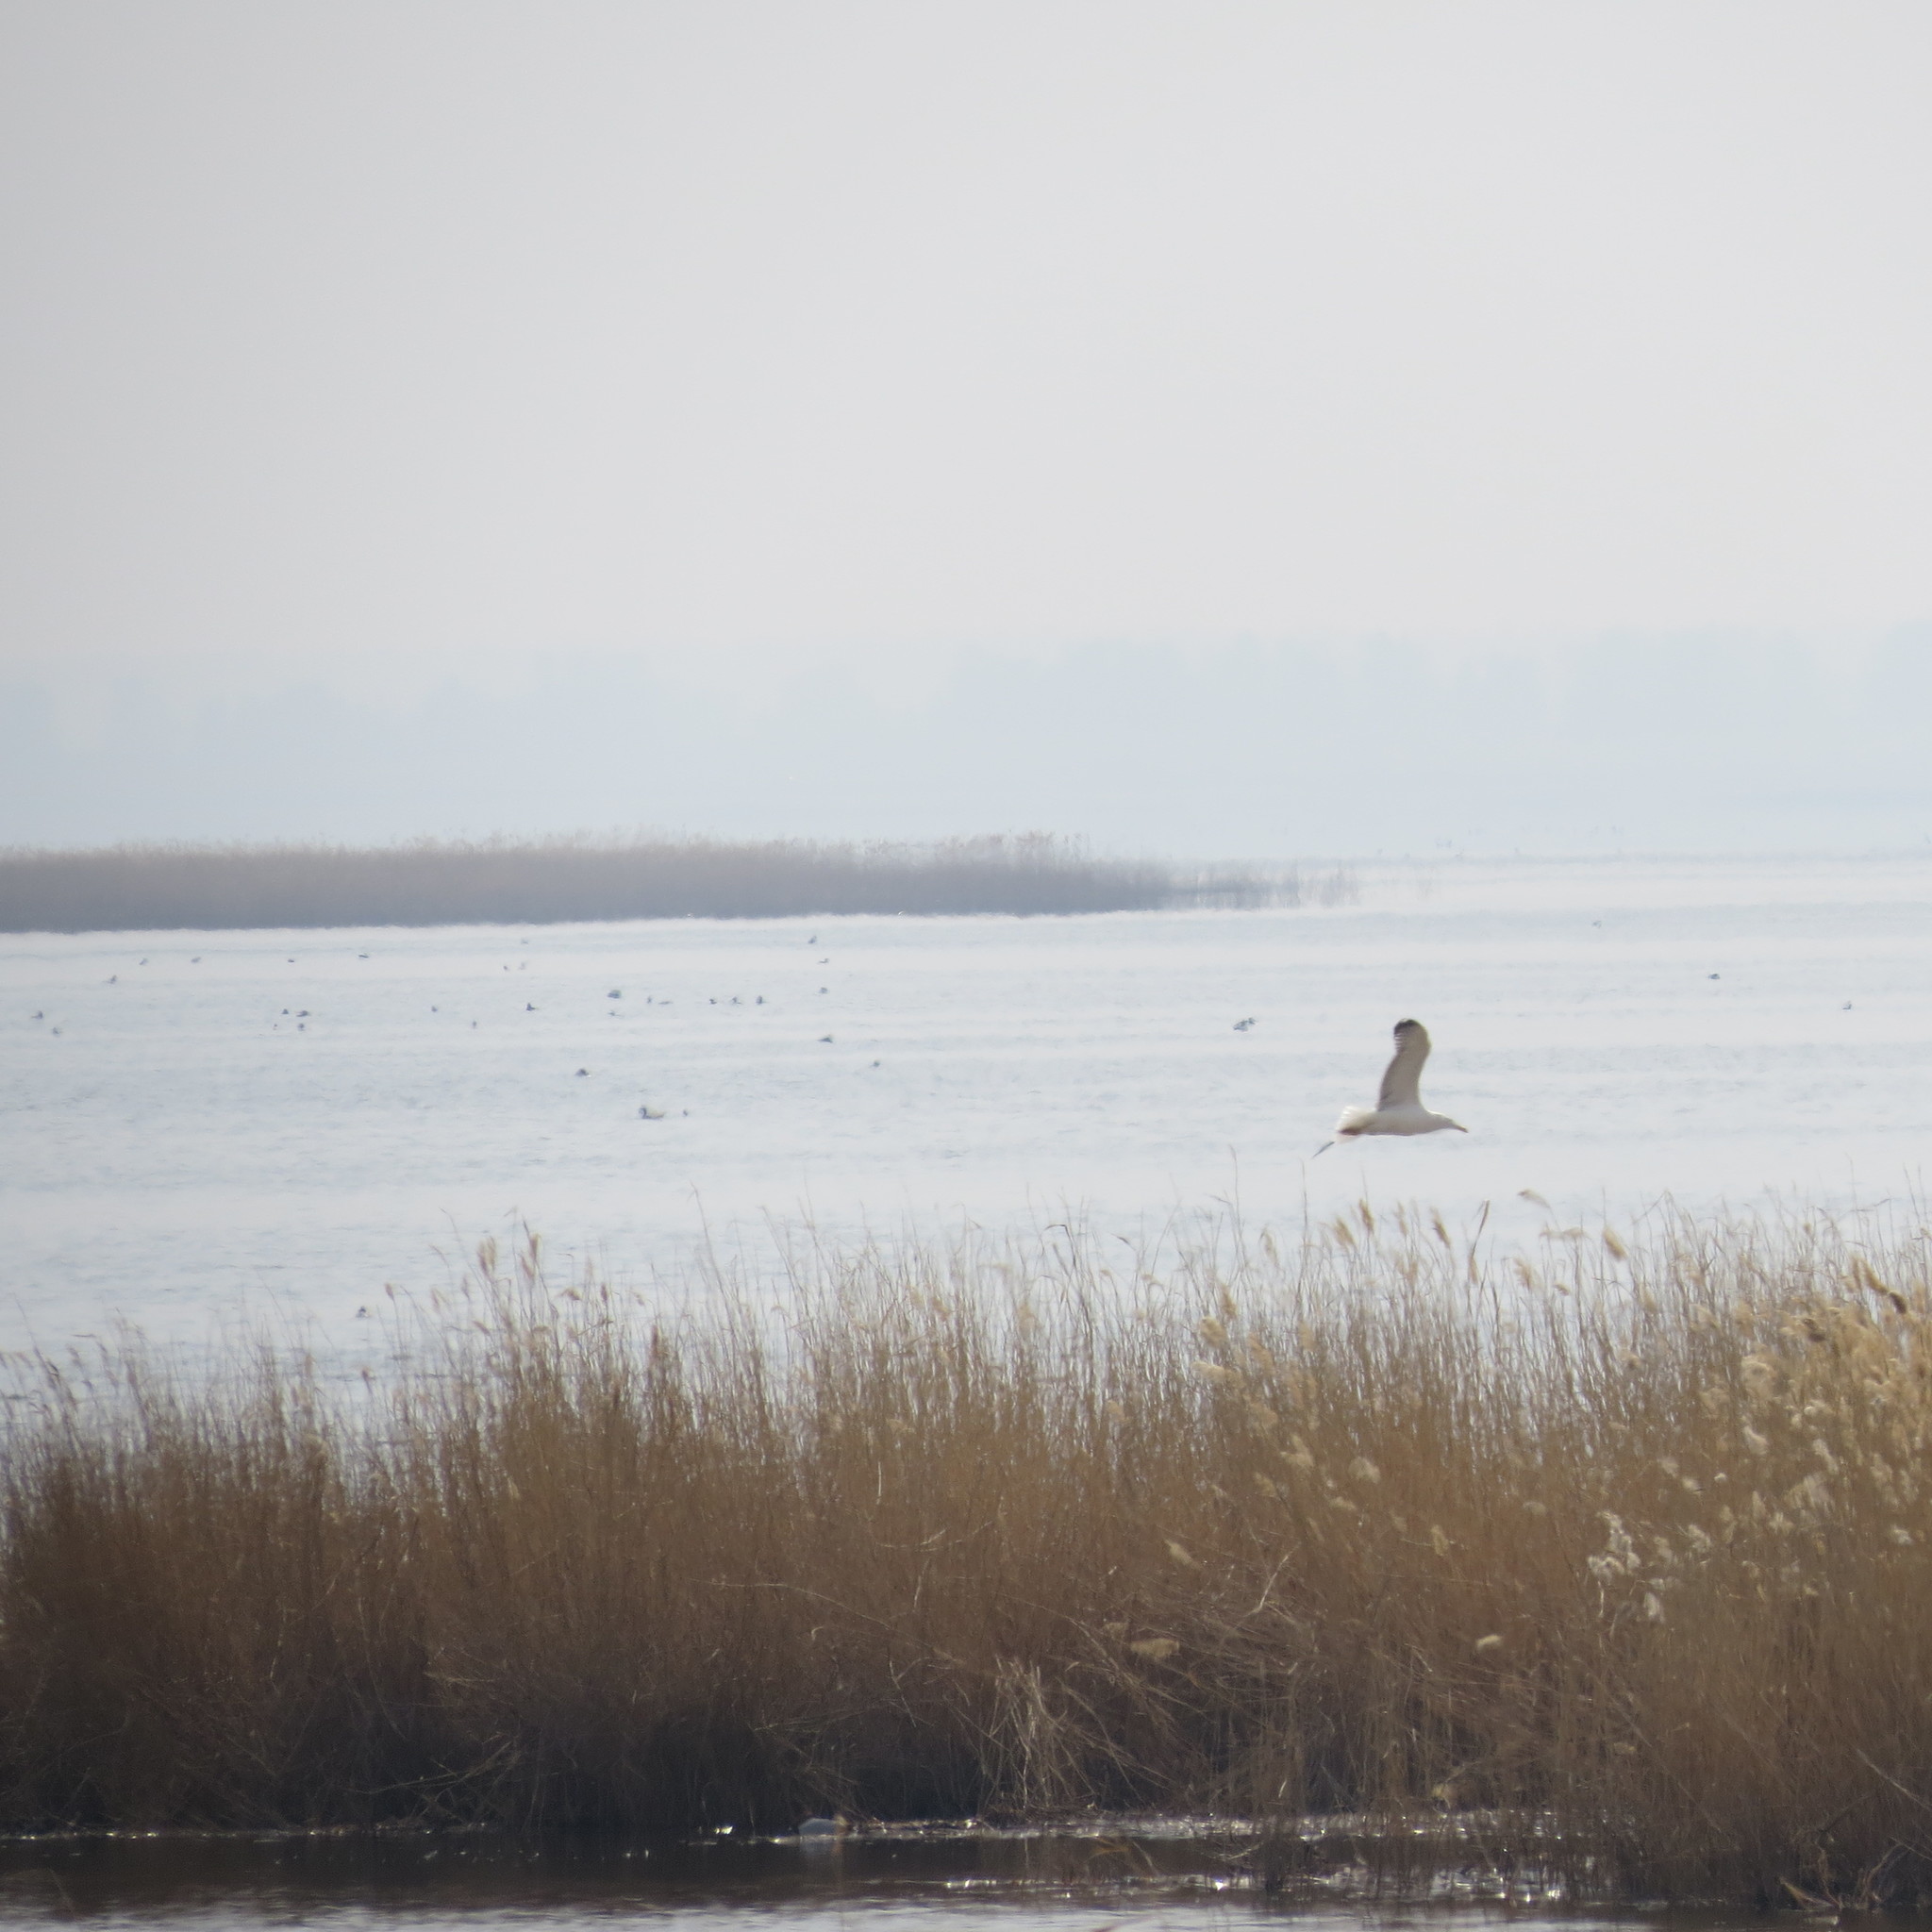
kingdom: Animalia
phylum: Chordata
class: Aves
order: Charadriiformes
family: Laridae
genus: Larus
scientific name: Larus fuscus
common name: Lesser black-backed gull
